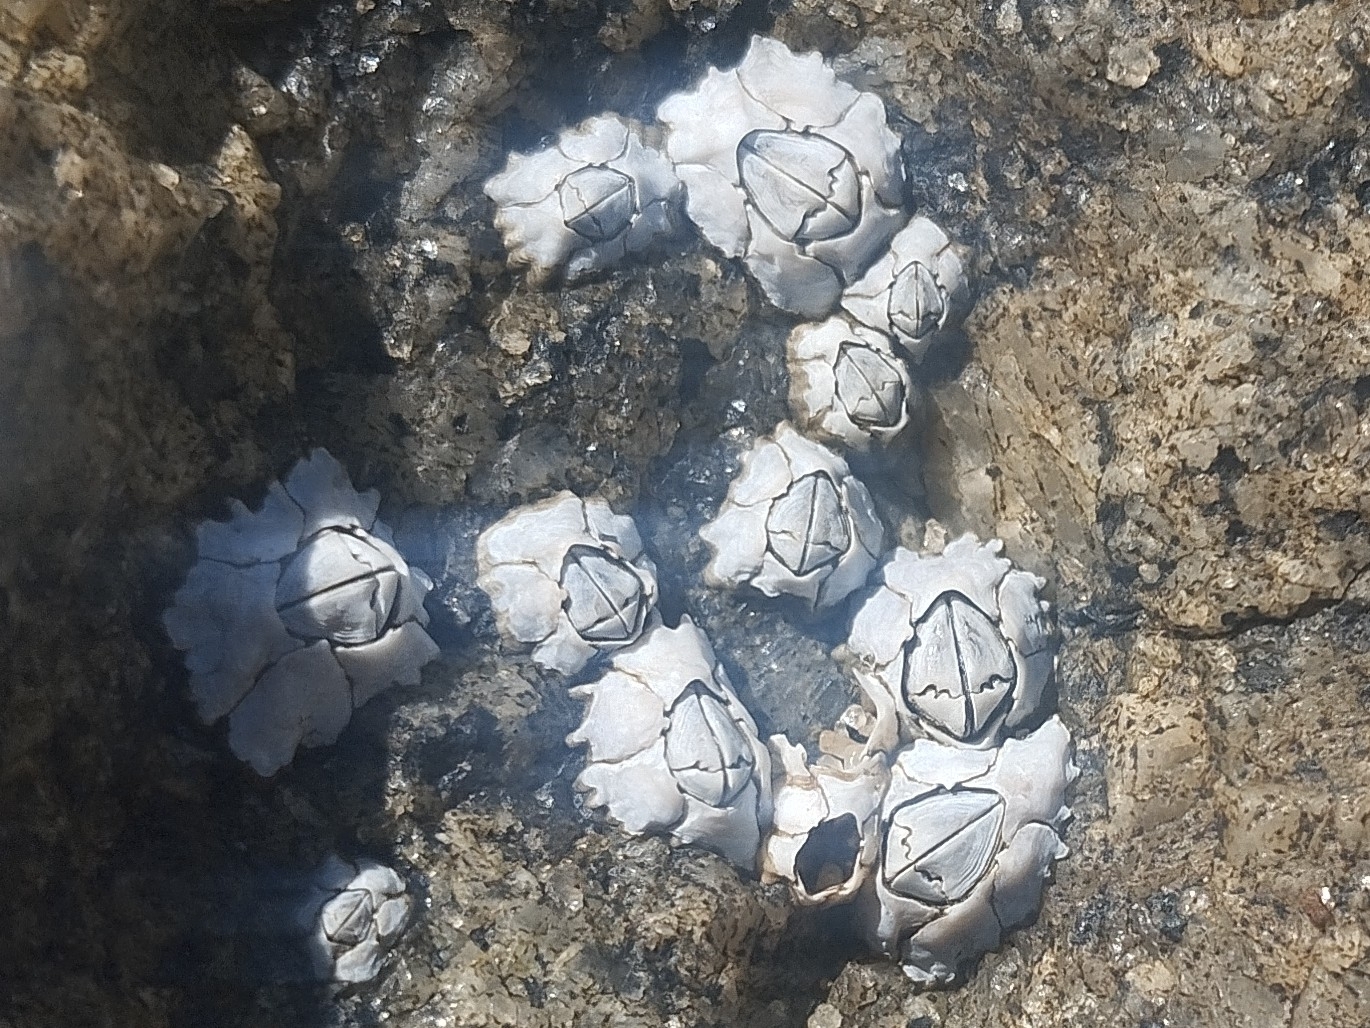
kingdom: Animalia
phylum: Arthropoda
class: Maxillopoda
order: Sessilia
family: Chthamalidae
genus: Chthamalus
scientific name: Chthamalus stellatus
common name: Poli's stellate barnacle
